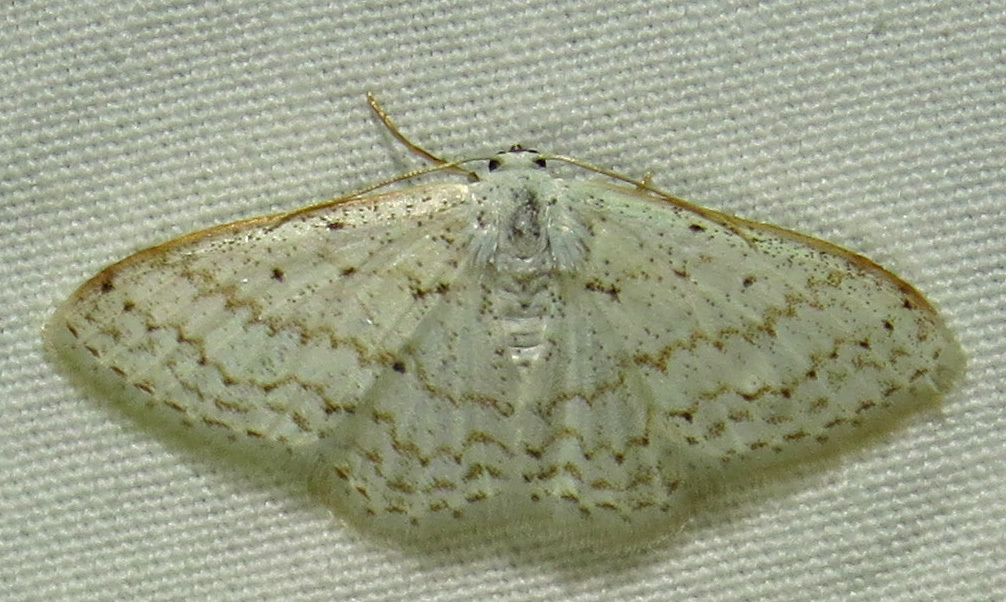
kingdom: Animalia
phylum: Arthropoda
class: Insecta
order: Lepidoptera
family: Geometridae
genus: Idaea
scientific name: Idaea tacturata
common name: Dot-lined wave
